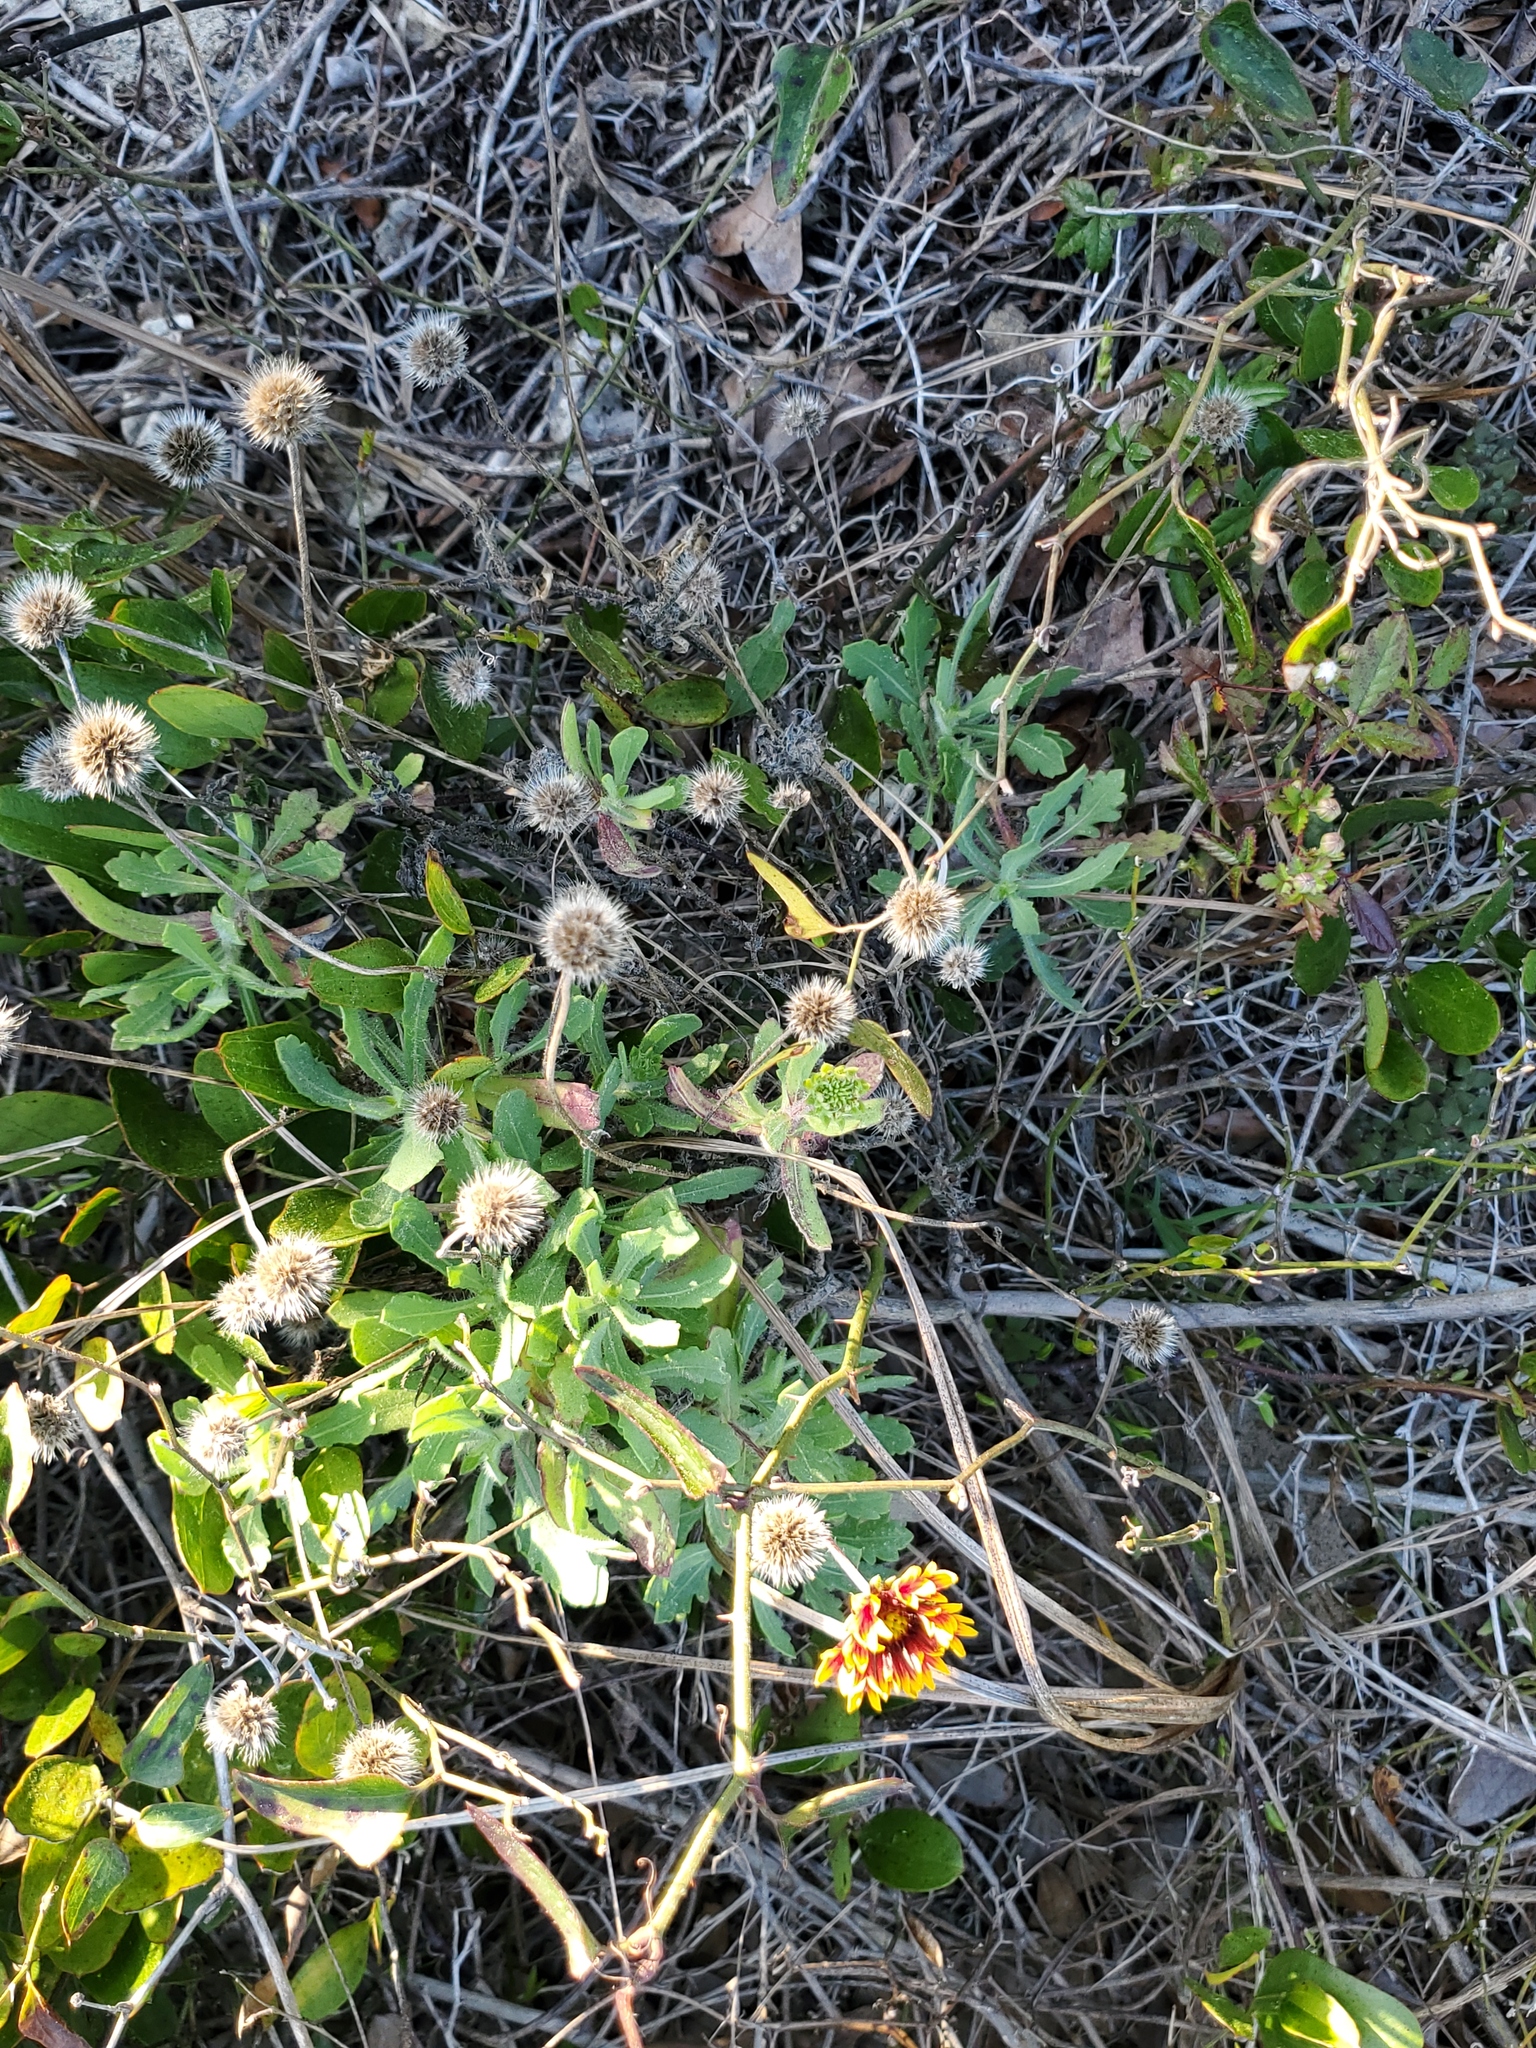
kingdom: Plantae
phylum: Tracheophyta
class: Magnoliopsida
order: Asterales
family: Asteraceae
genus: Gaillardia
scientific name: Gaillardia pulchella
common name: Firewheel
